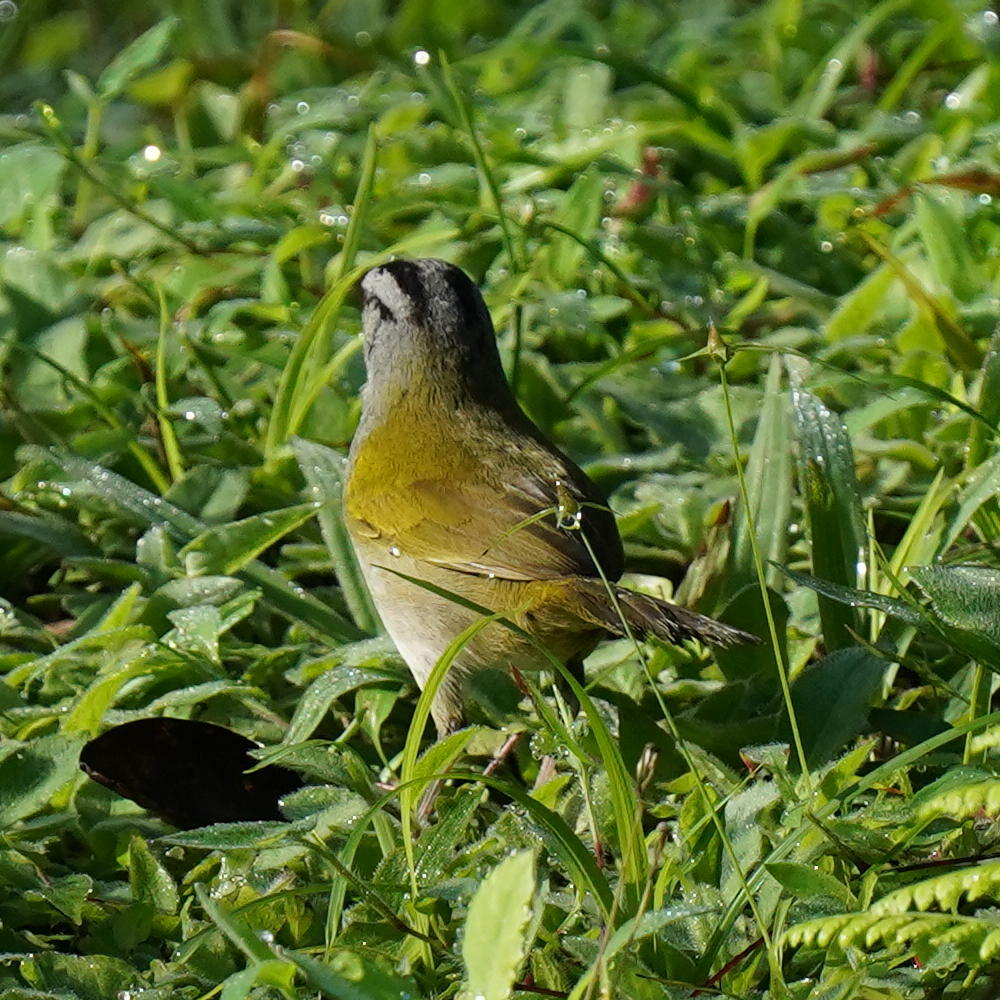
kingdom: Animalia
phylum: Chordata
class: Aves
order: Passeriformes
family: Passerellidae
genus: Arremonops
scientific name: Arremonops conirostris
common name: Black-striped sparrow
